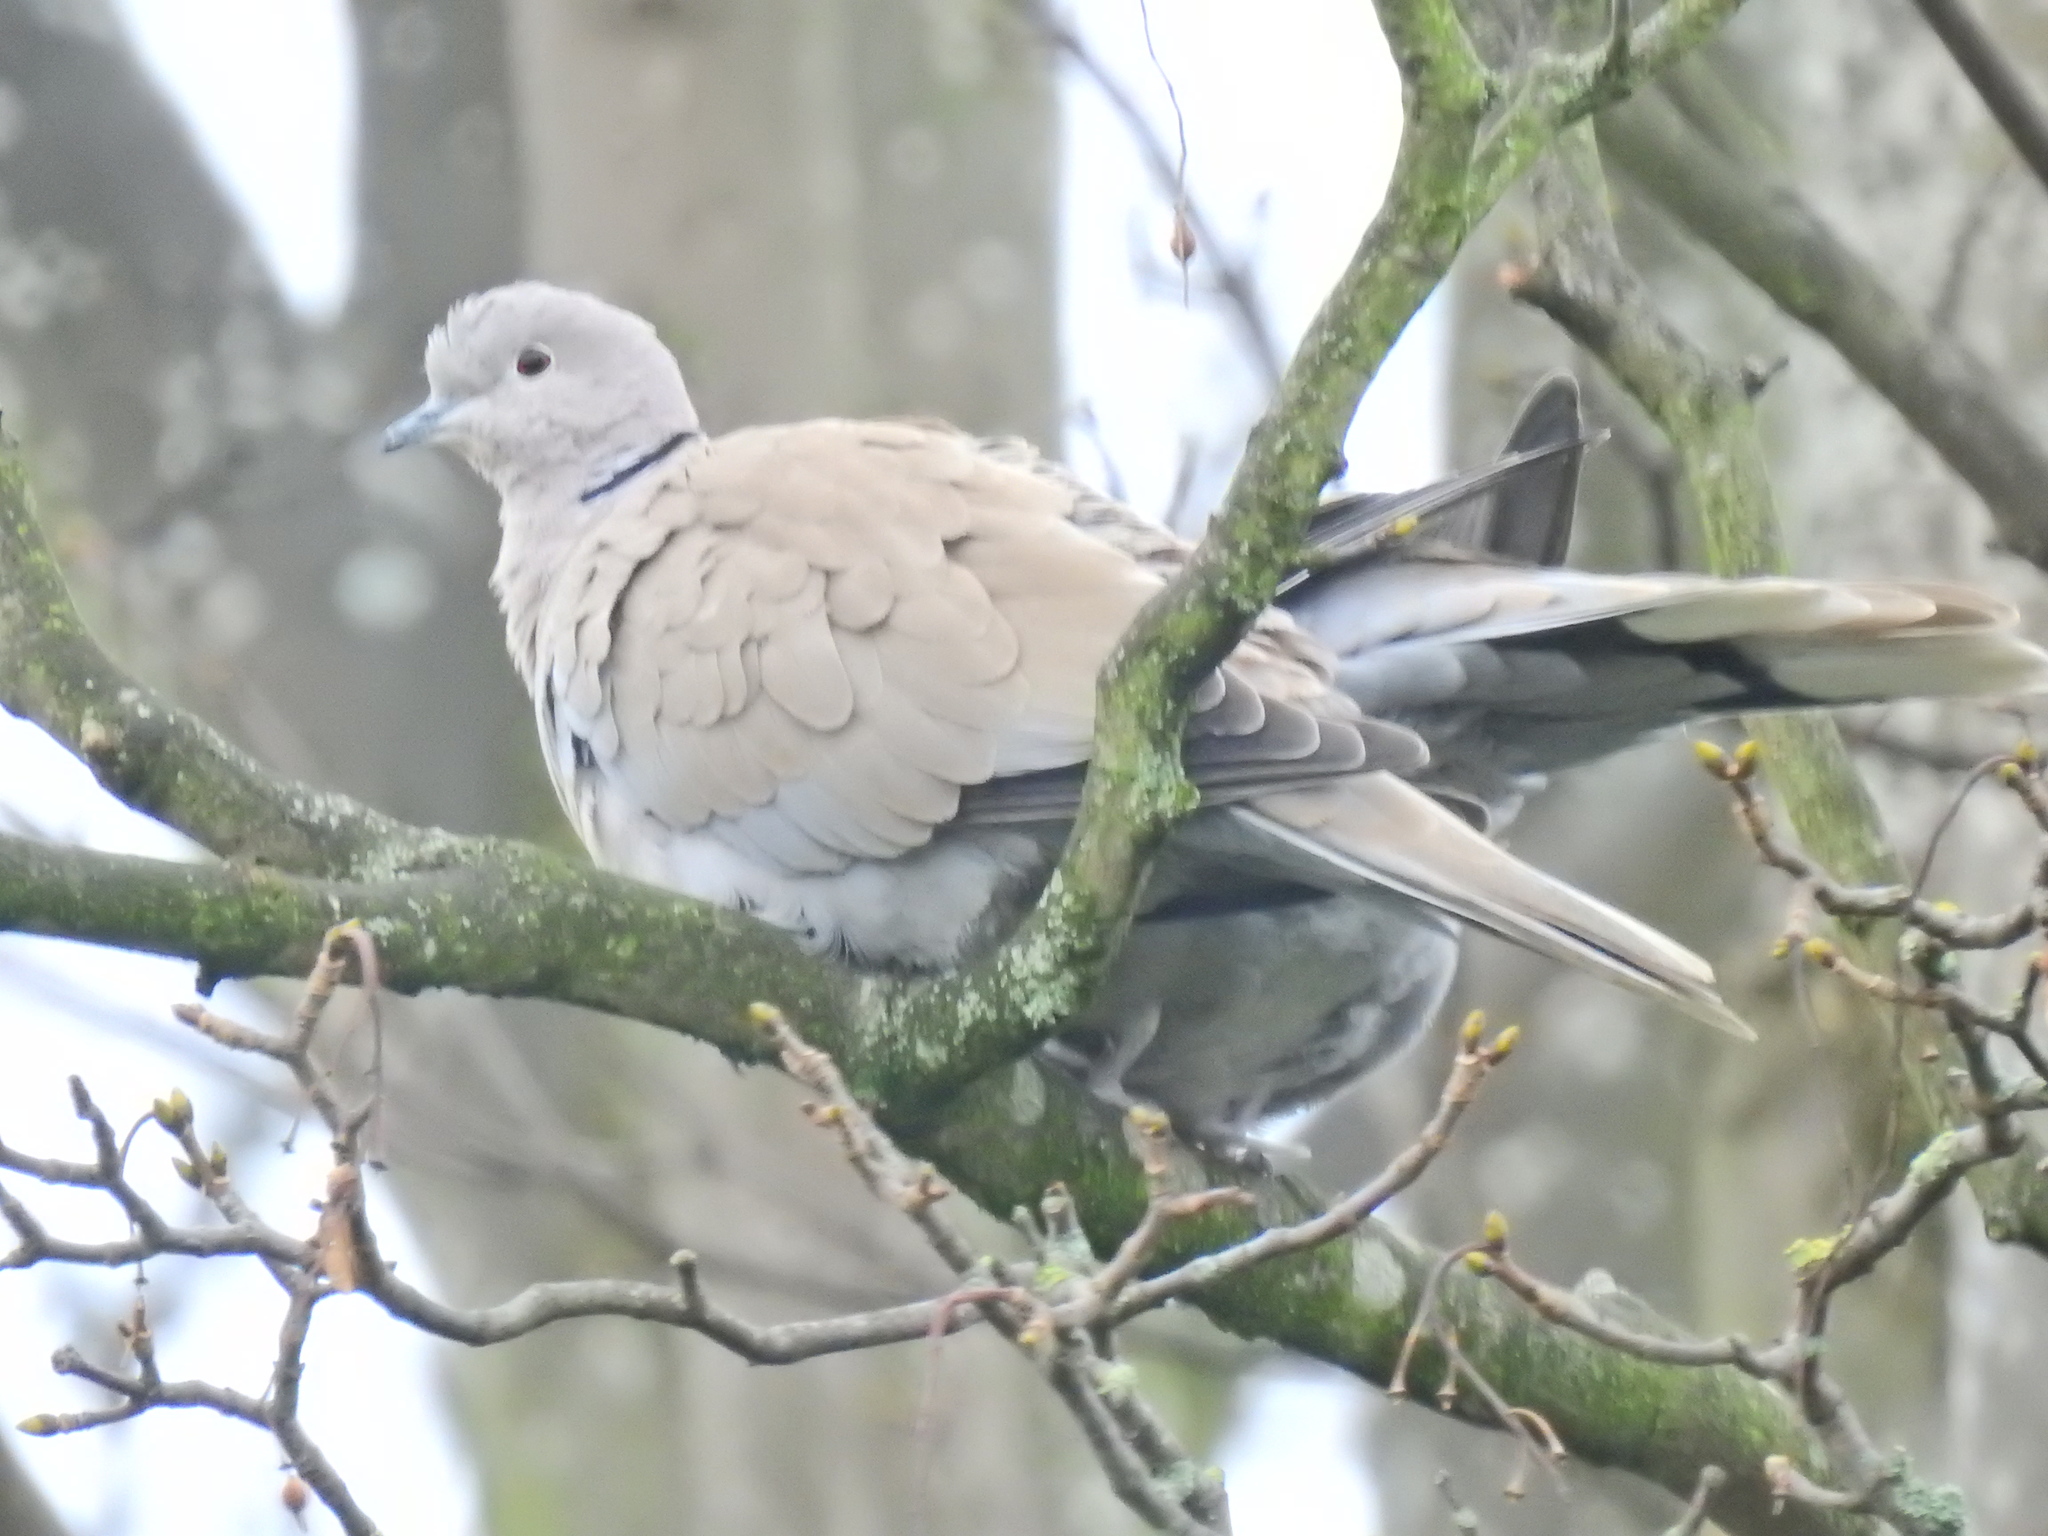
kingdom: Animalia
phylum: Chordata
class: Aves
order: Columbiformes
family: Columbidae
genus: Streptopelia
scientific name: Streptopelia decaocto
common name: Eurasian collared dove
